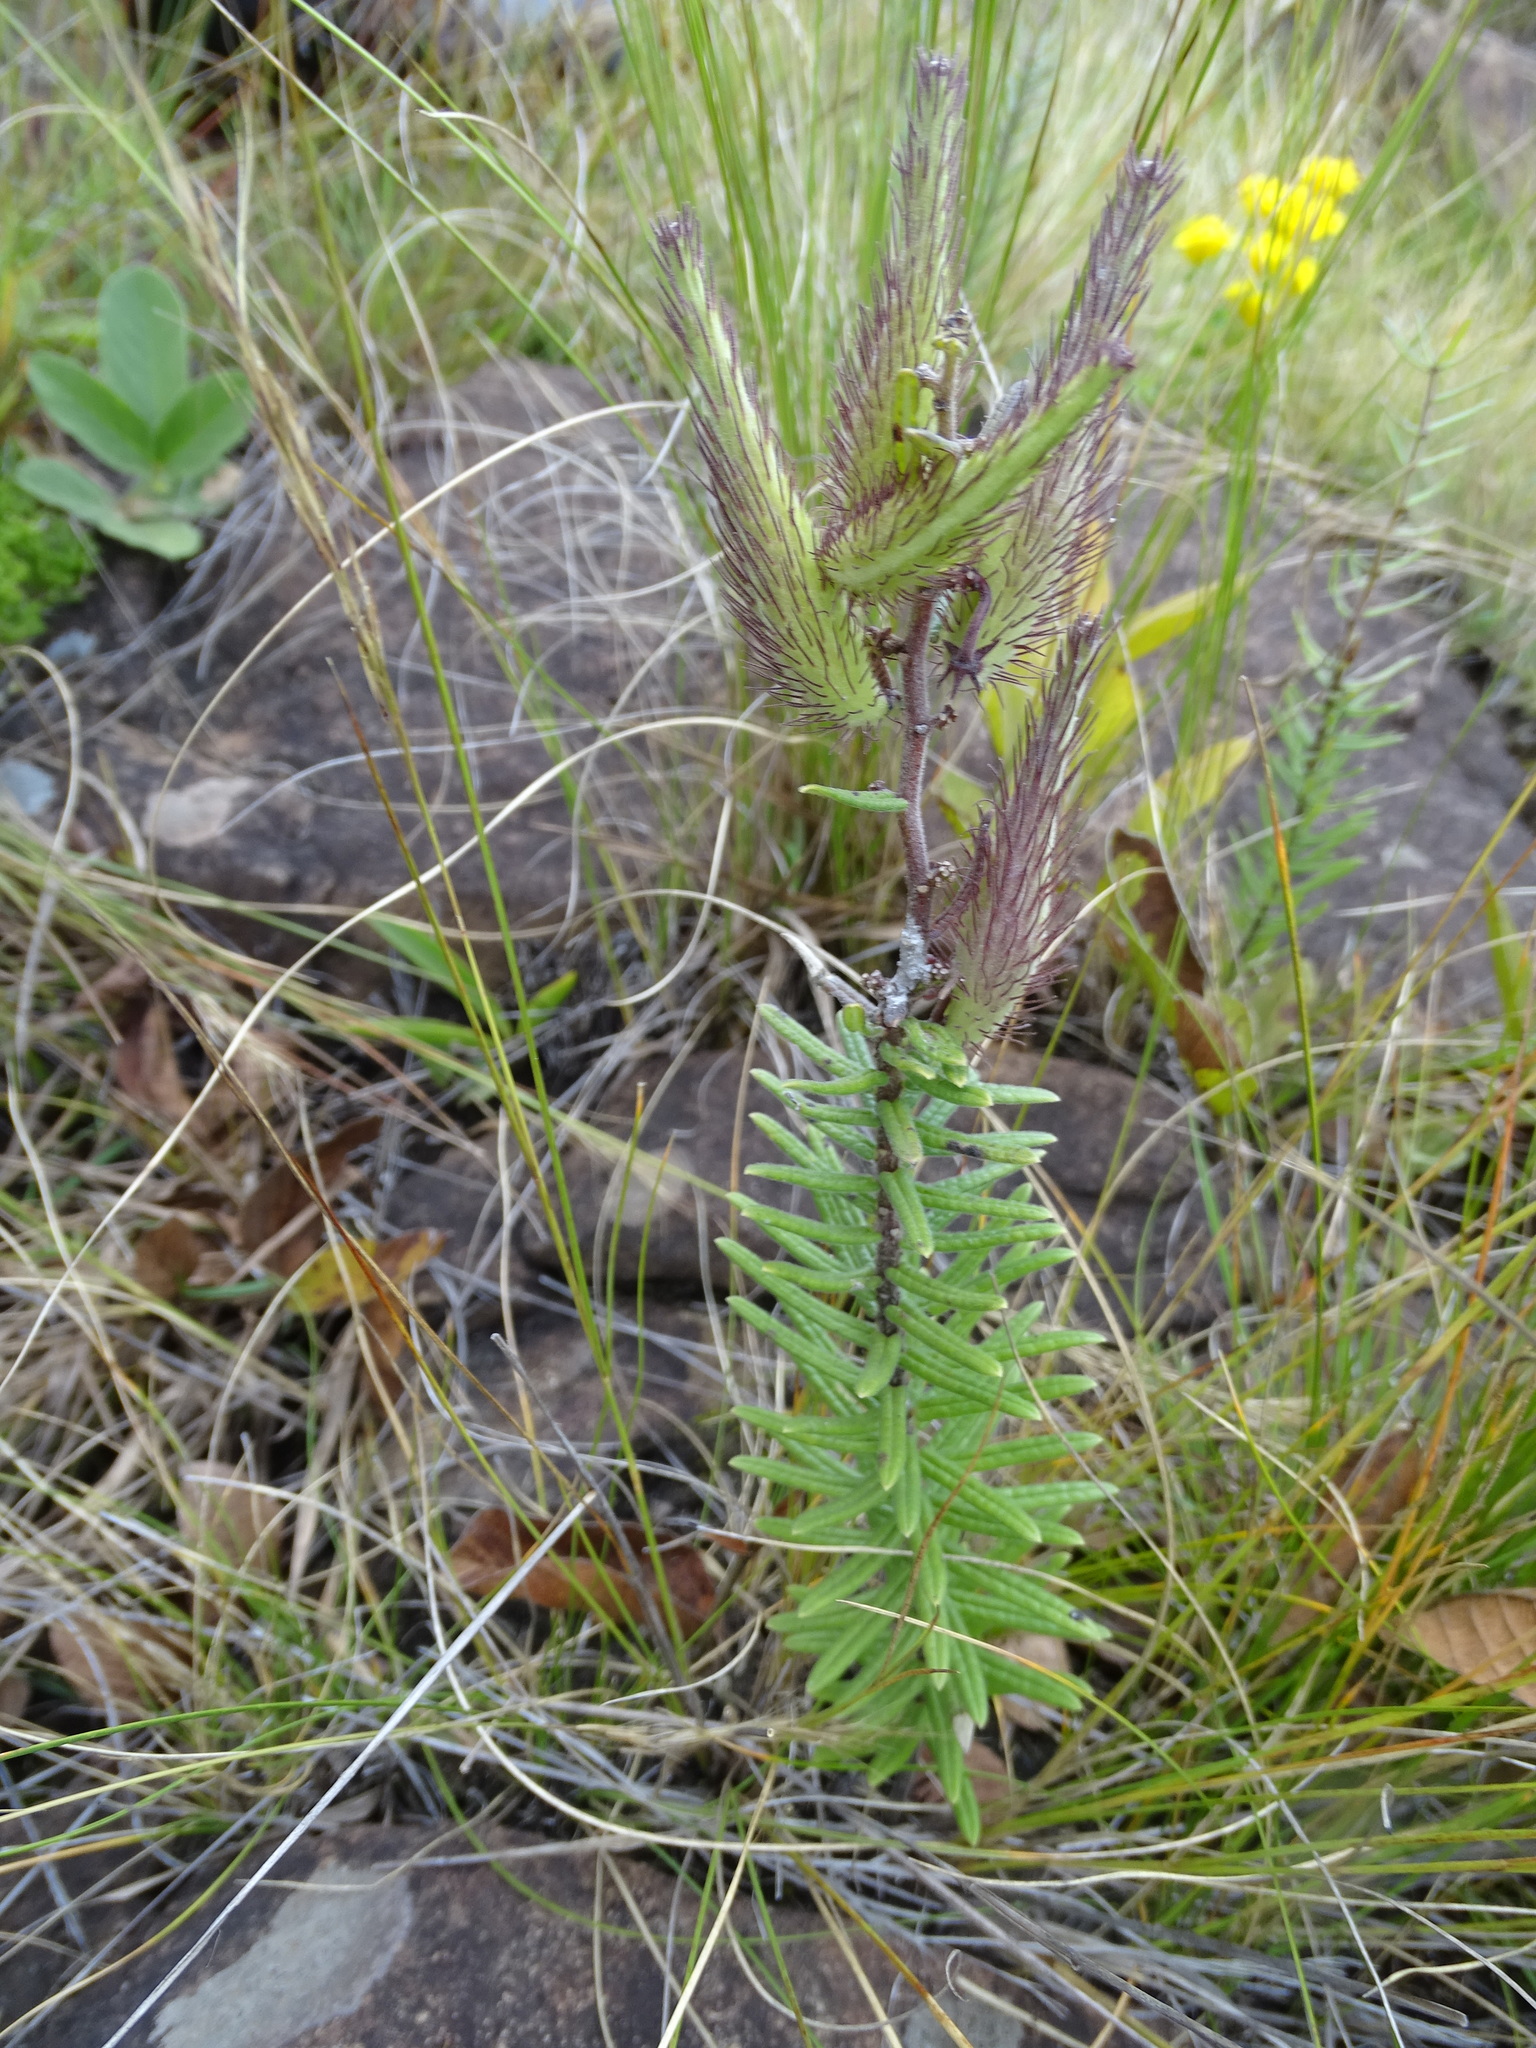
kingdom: Plantae
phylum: Tracheophyta
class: Magnoliopsida
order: Gentianales
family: Apocynaceae
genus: Schizoglossum
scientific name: Schizoglossum bidens
